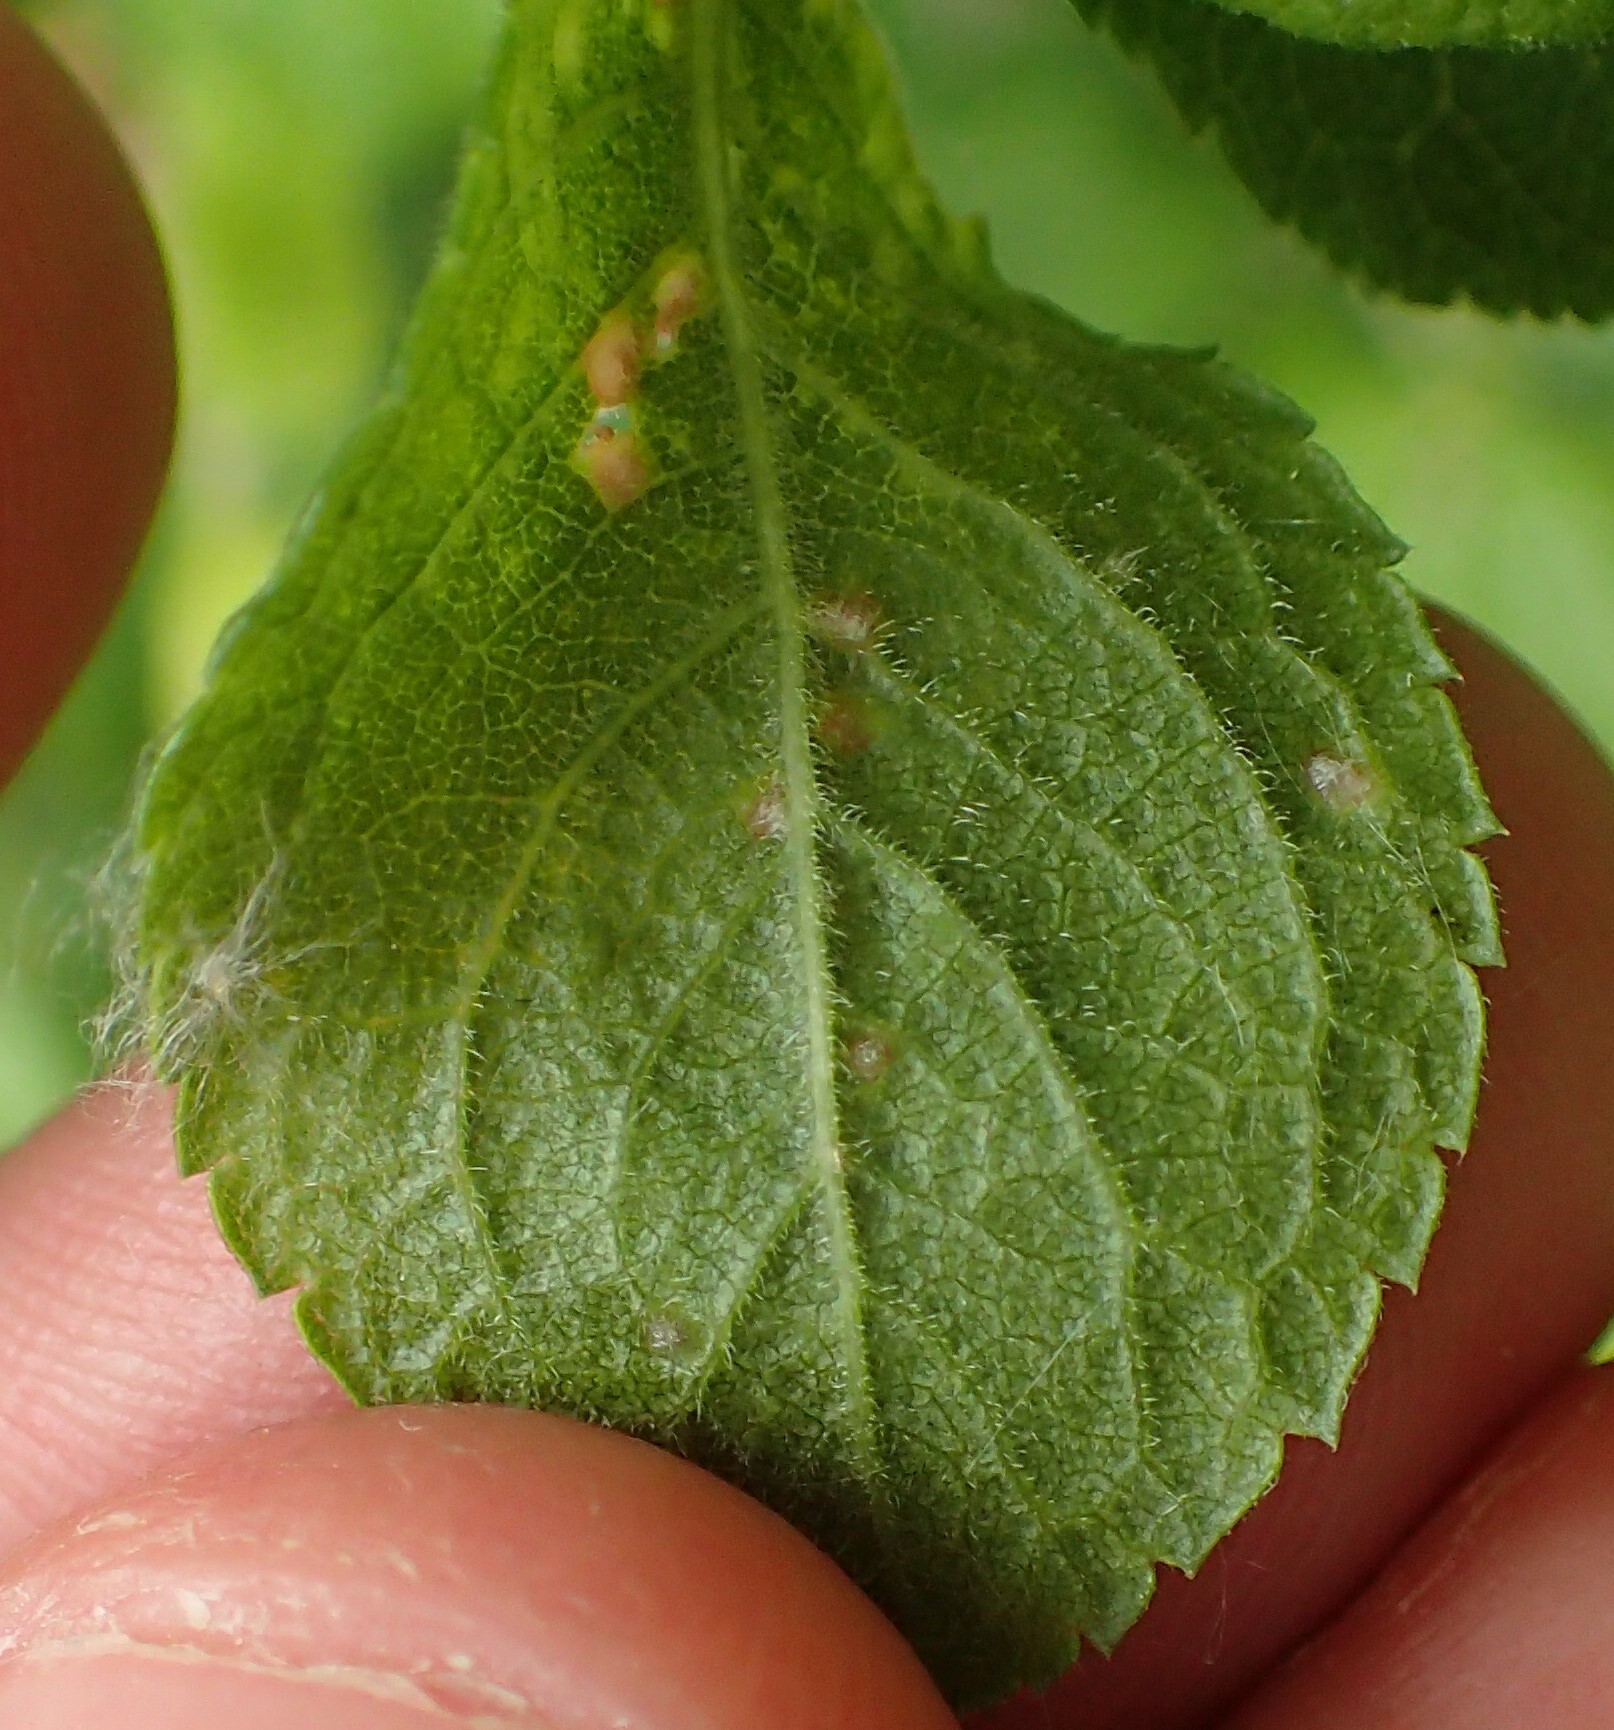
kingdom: Animalia
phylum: Arthropoda
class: Arachnida
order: Trombidiformes
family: Eriophyidae
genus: Eriophyes
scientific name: Eriophyes homophyllus
